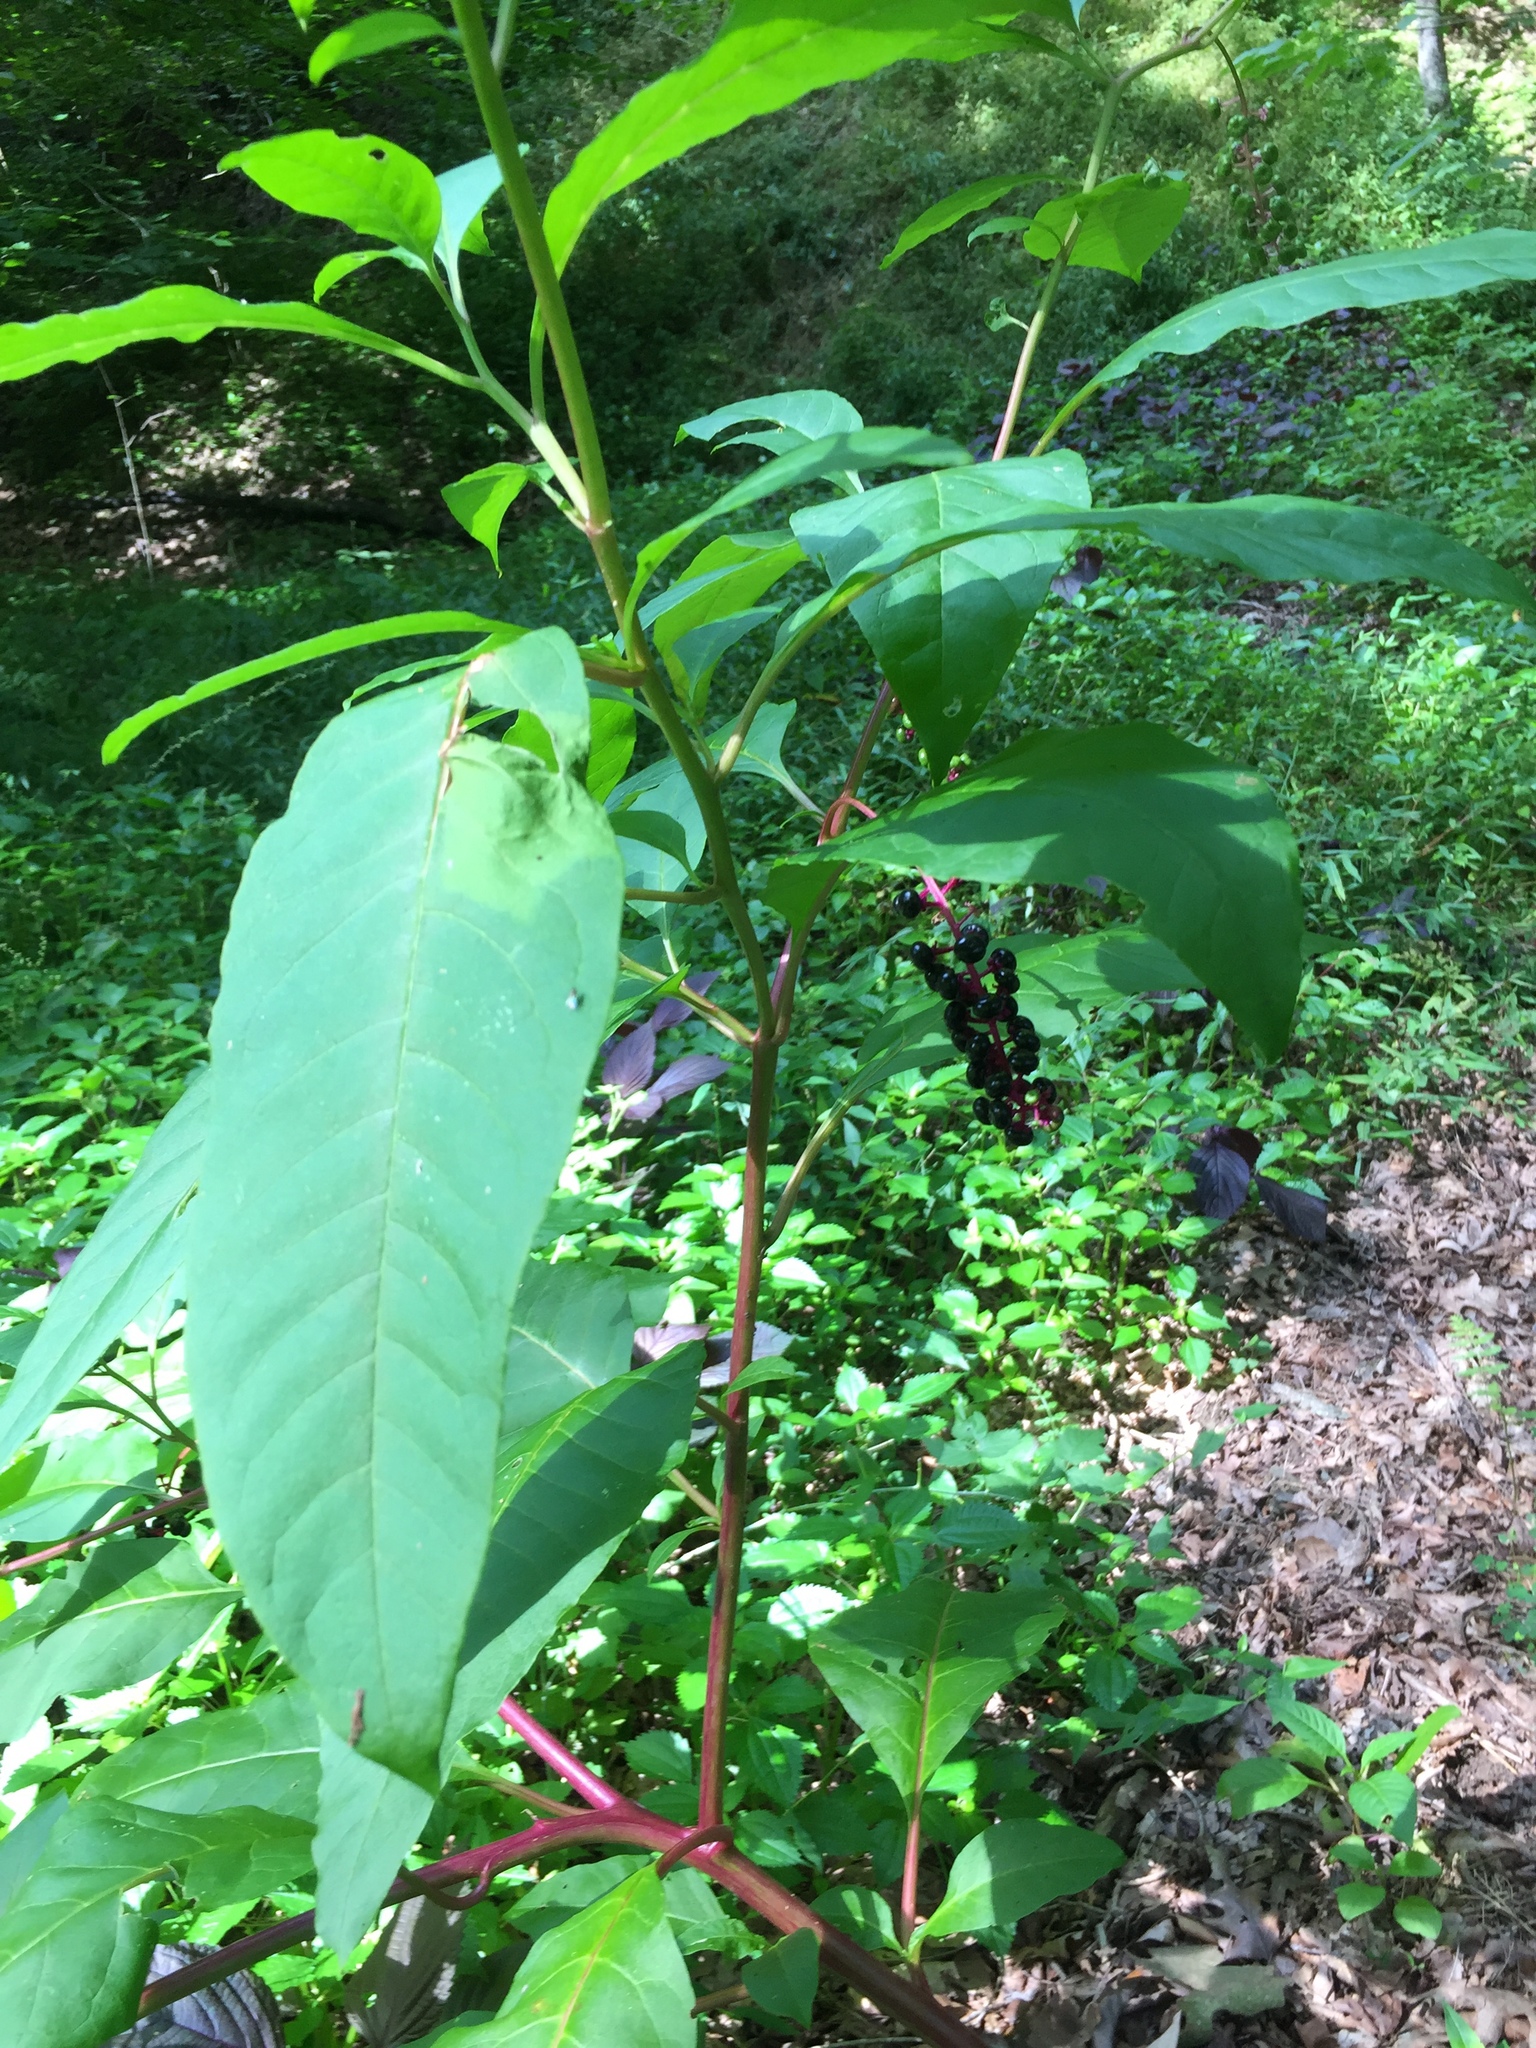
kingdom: Plantae
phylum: Tracheophyta
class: Magnoliopsida
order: Caryophyllales
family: Phytolaccaceae
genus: Phytolacca
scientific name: Phytolacca americana
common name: American pokeweed
